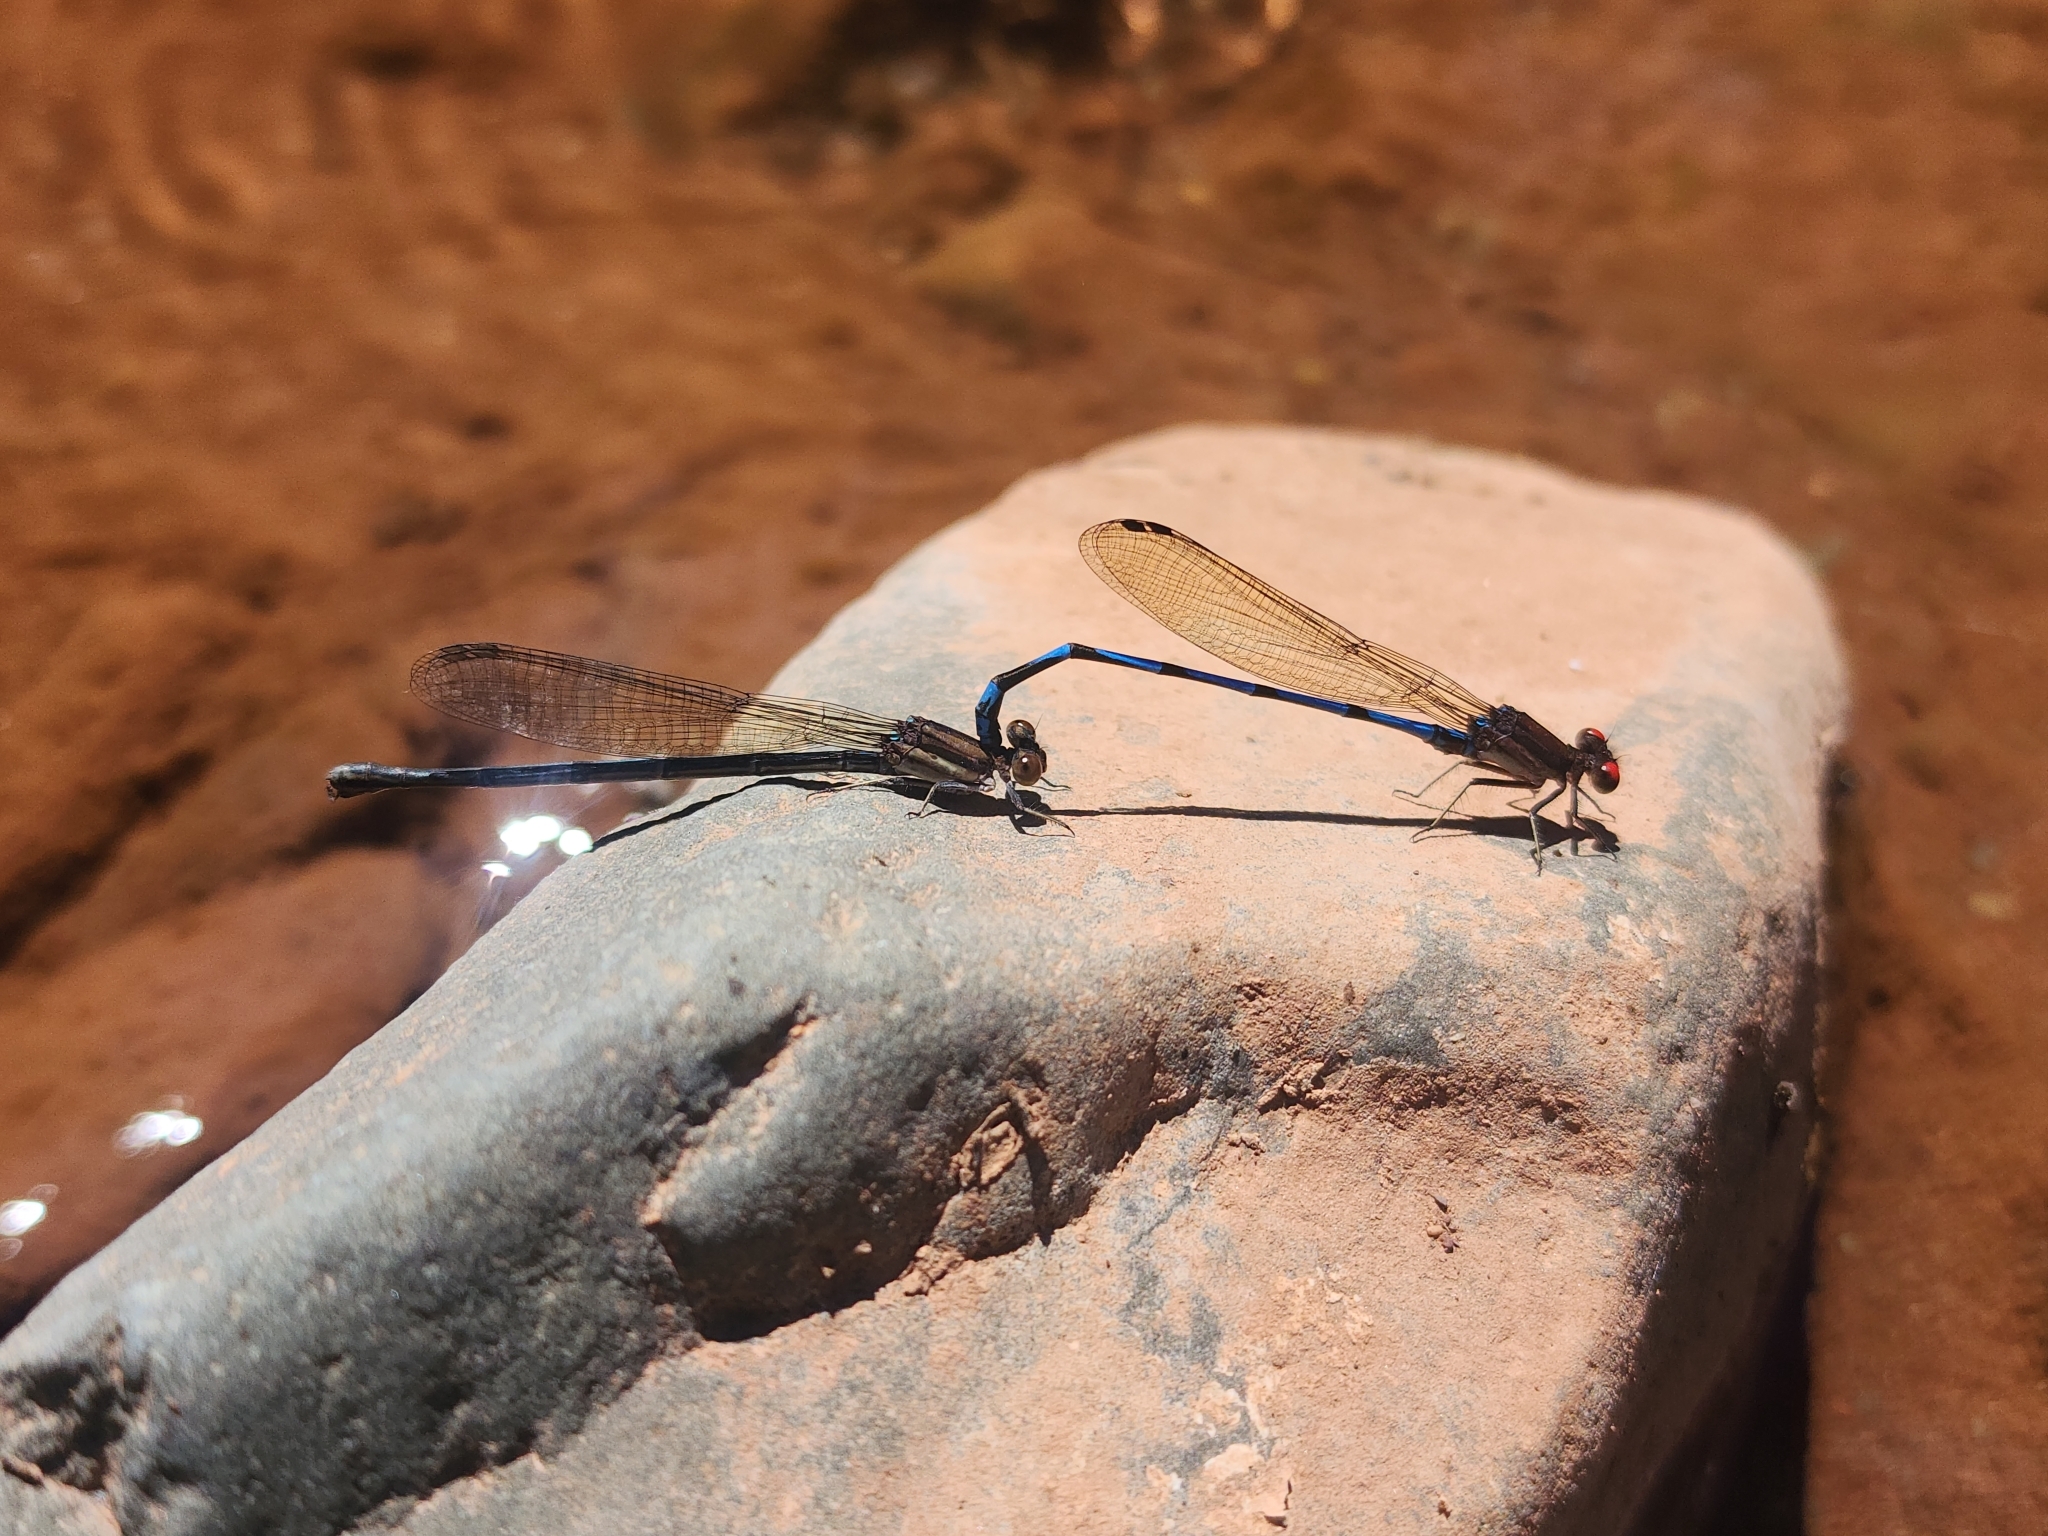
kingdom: Animalia
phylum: Arthropoda
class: Insecta
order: Odonata
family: Coenagrionidae
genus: Argia
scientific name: Argia joergenseni
